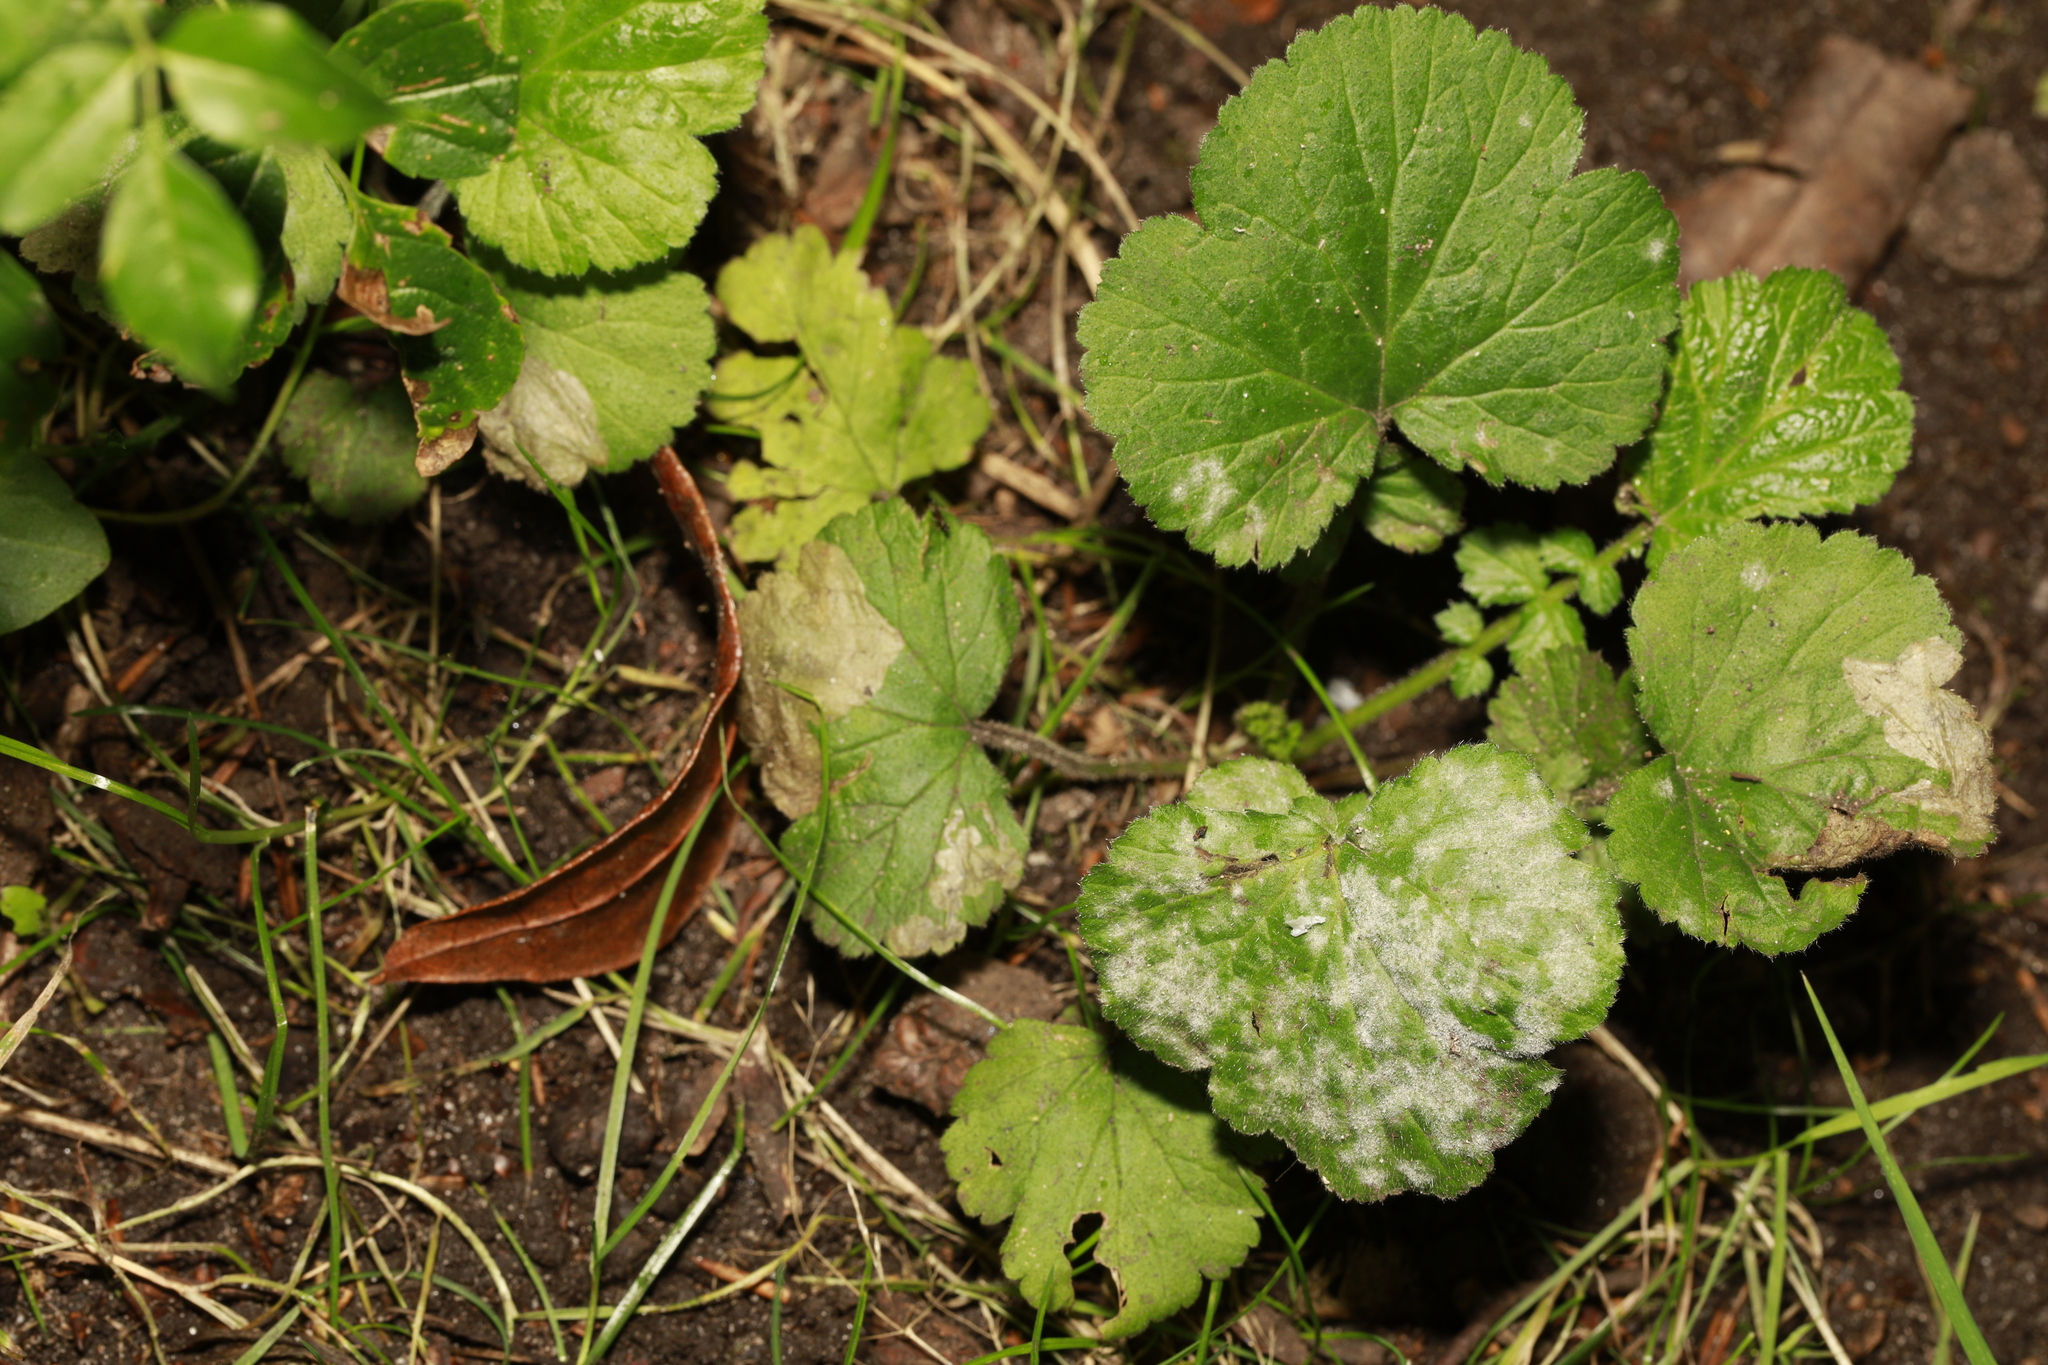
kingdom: Fungi
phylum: Ascomycota
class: Leotiomycetes
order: Helotiales
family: Erysiphaceae
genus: Podosphaera
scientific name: Podosphaera aphanis
